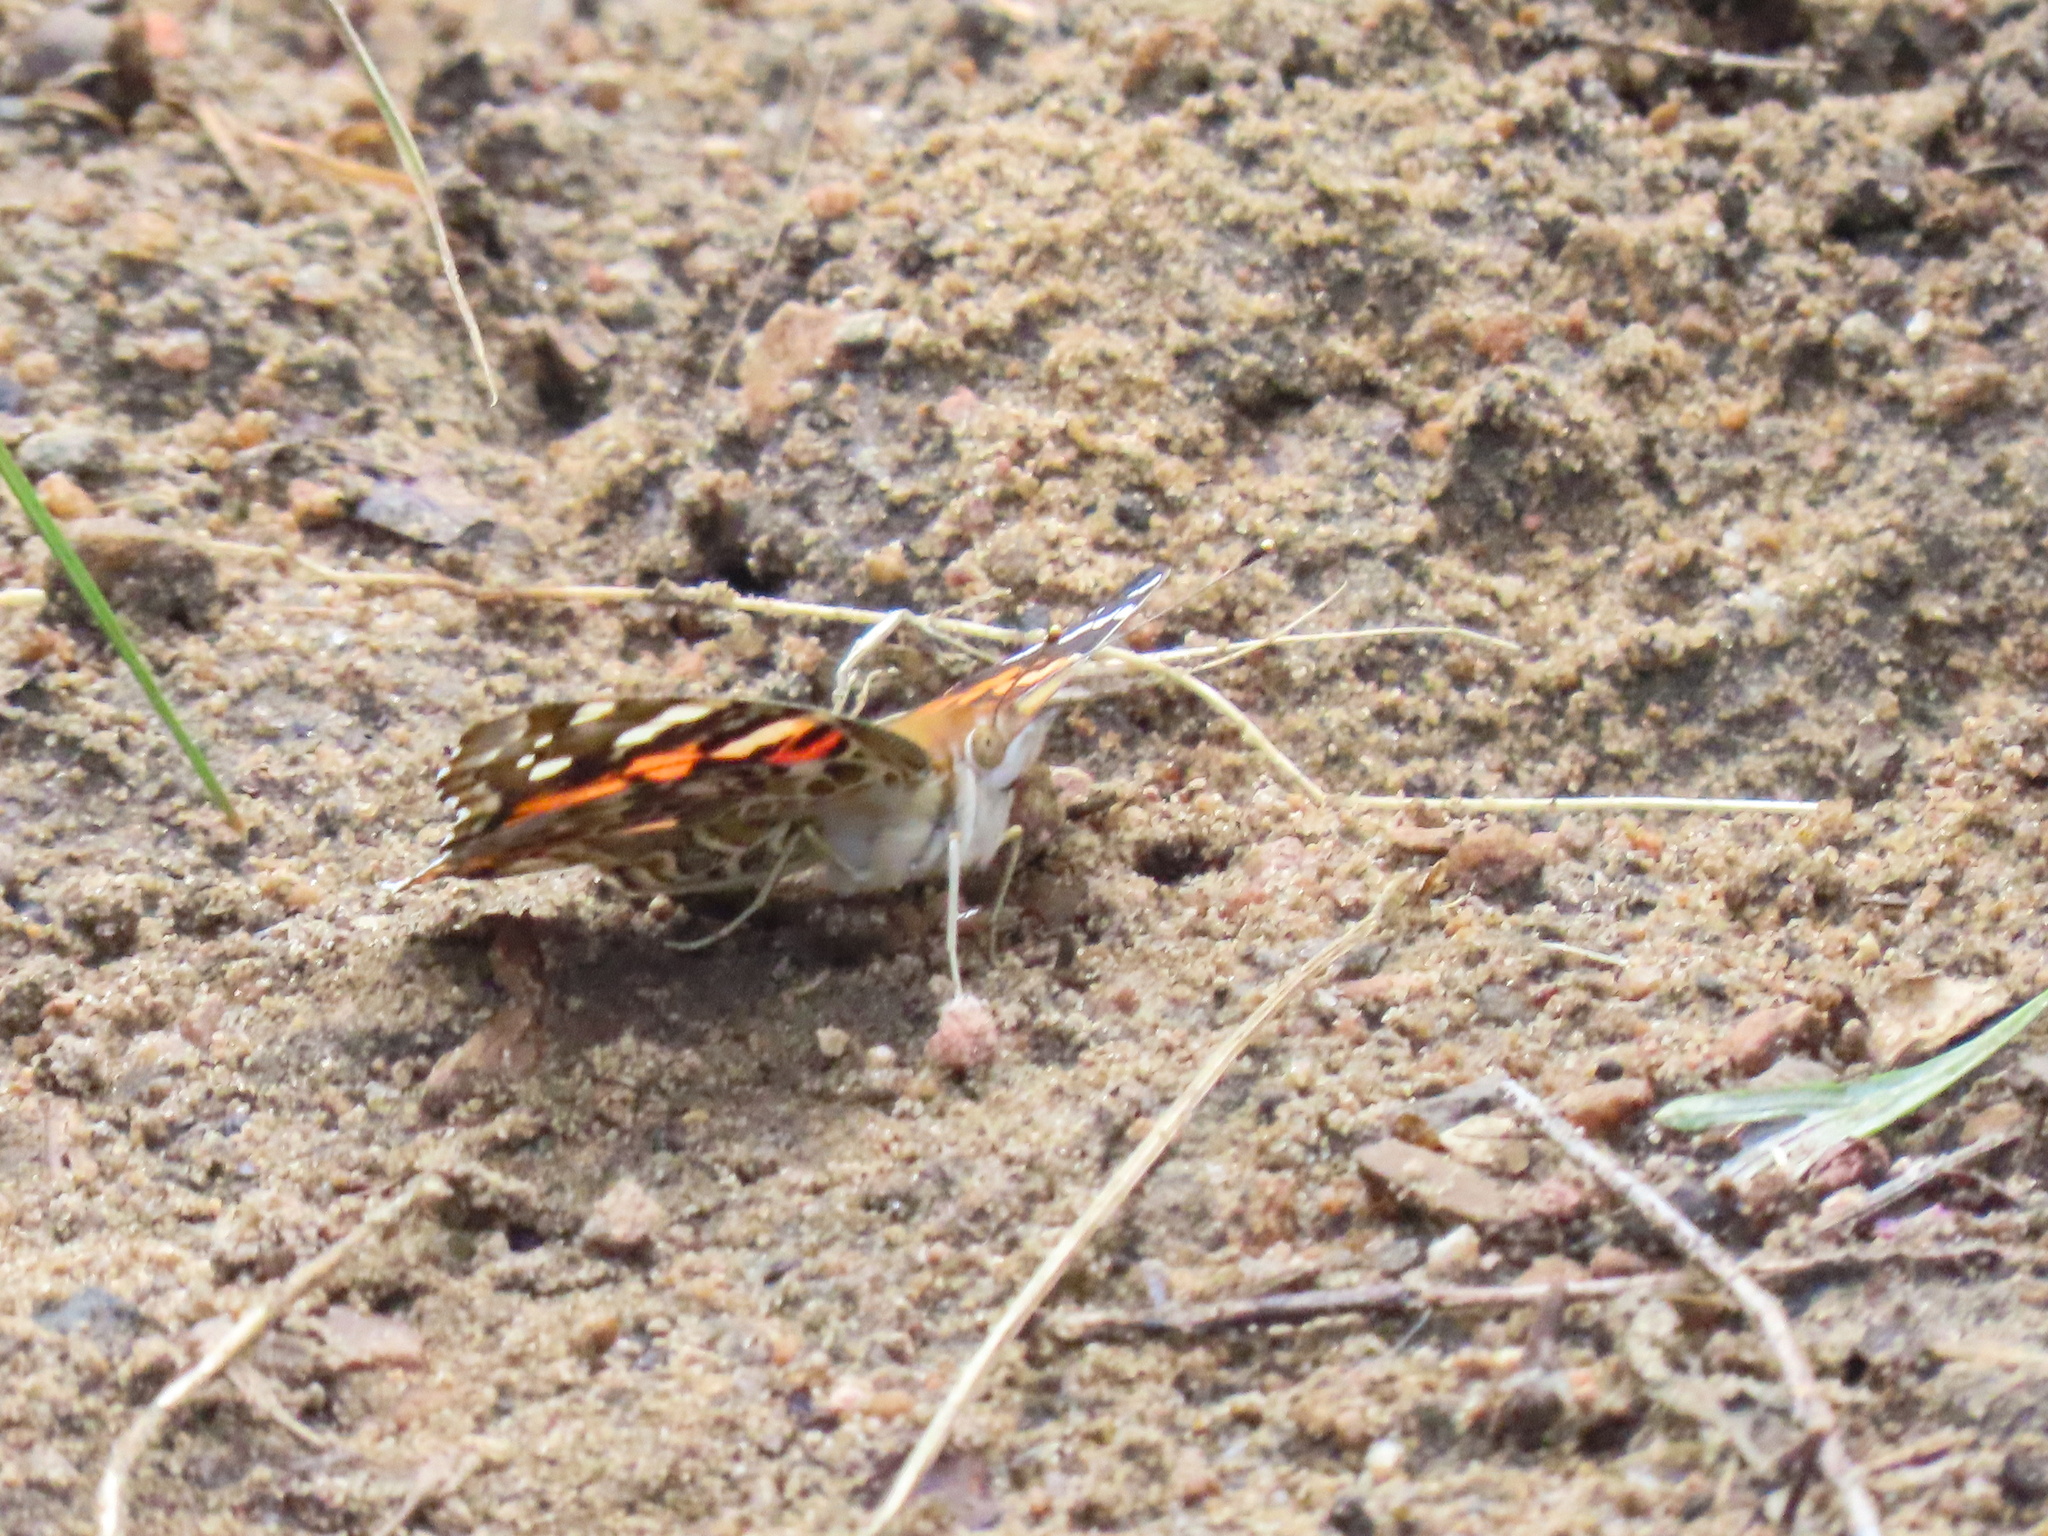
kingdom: Animalia
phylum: Arthropoda
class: Insecta
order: Lepidoptera
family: Nymphalidae
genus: Vanessa
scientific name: Vanessa cardui
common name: Painted lady
